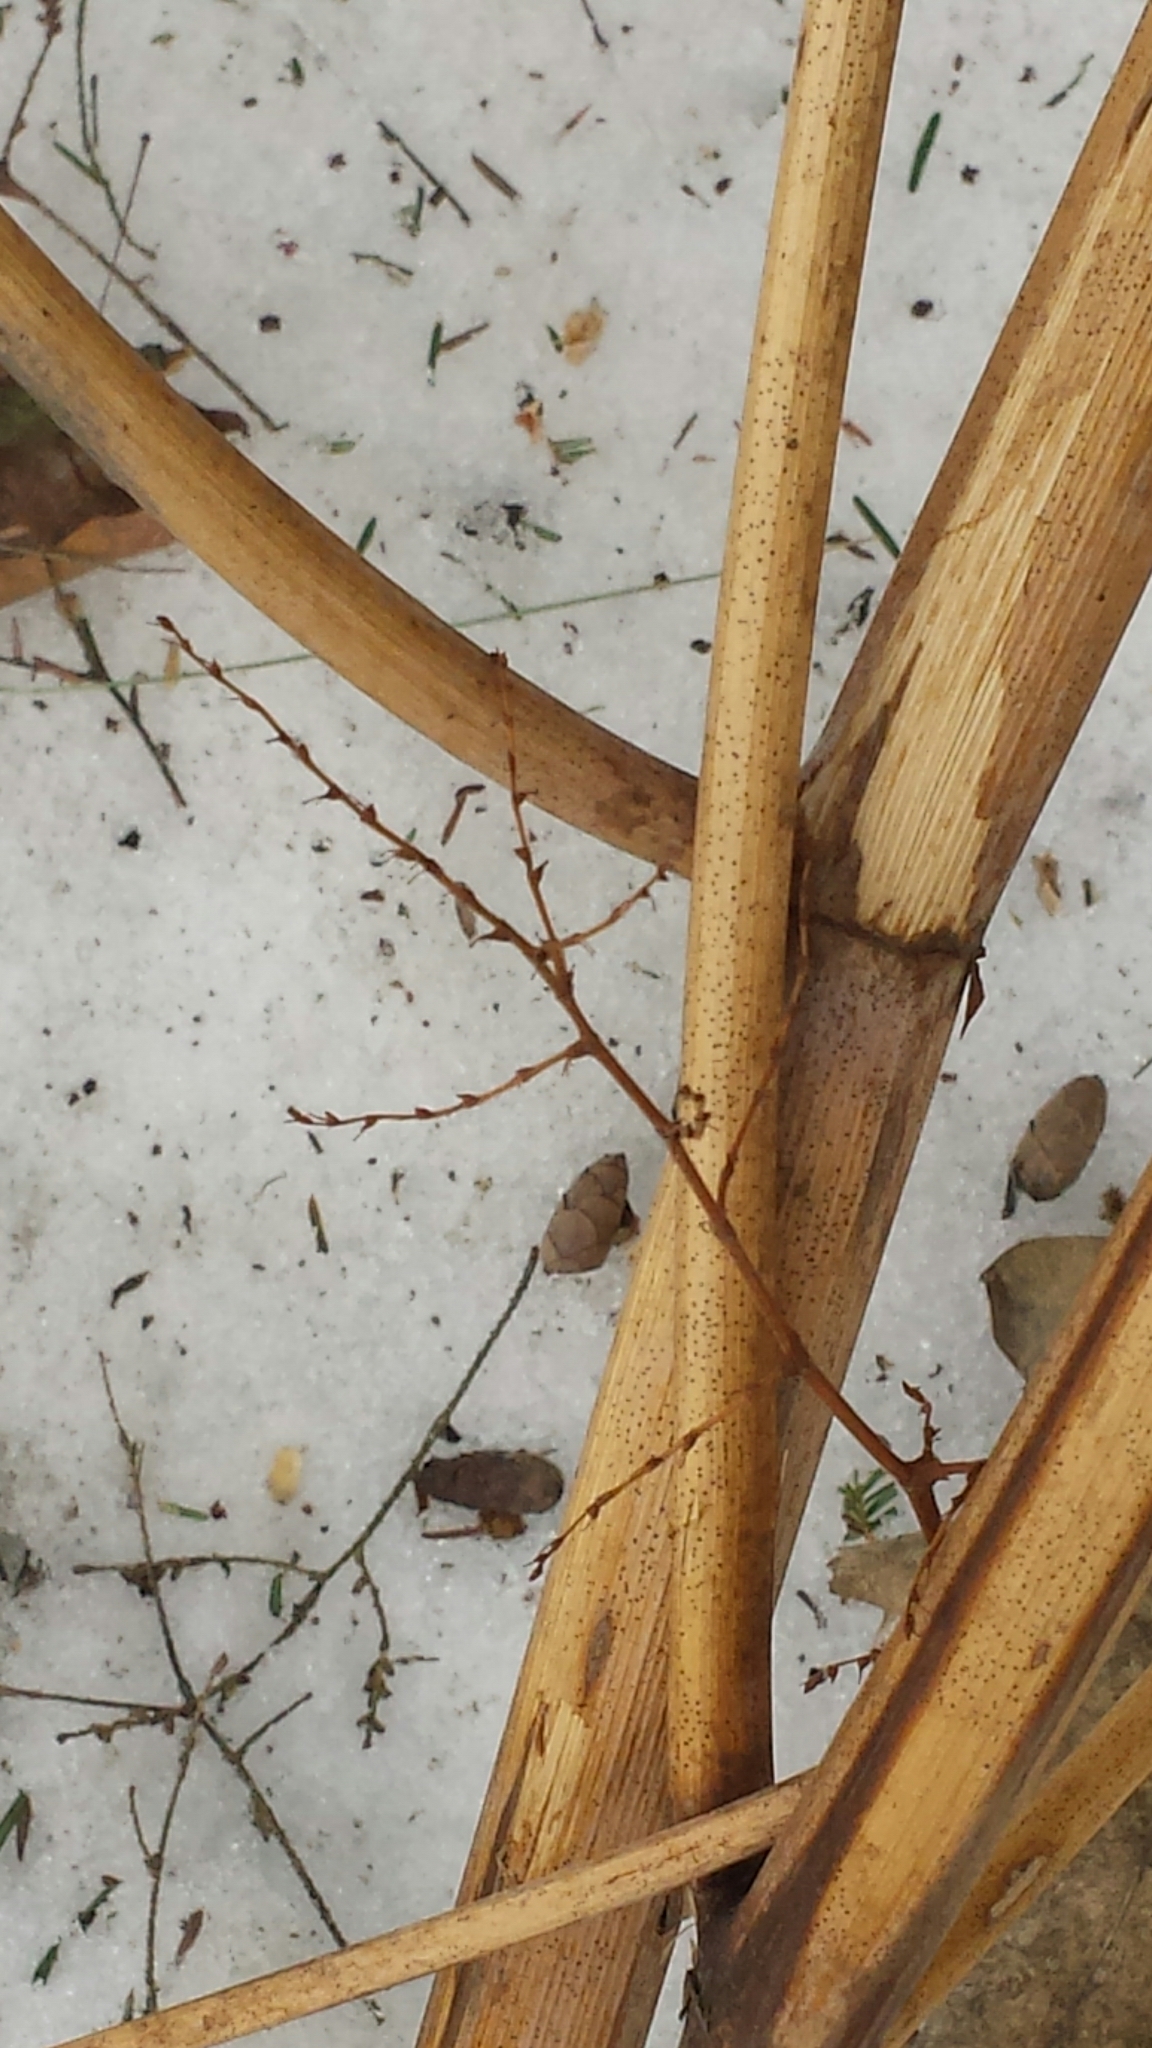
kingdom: Plantae
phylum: Tracheophyta
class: Magnoliopsida
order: Caryophyllales
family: Polygonaceae
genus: Reynoutria
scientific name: Reynoutria japonica
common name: Japanese knotweed
